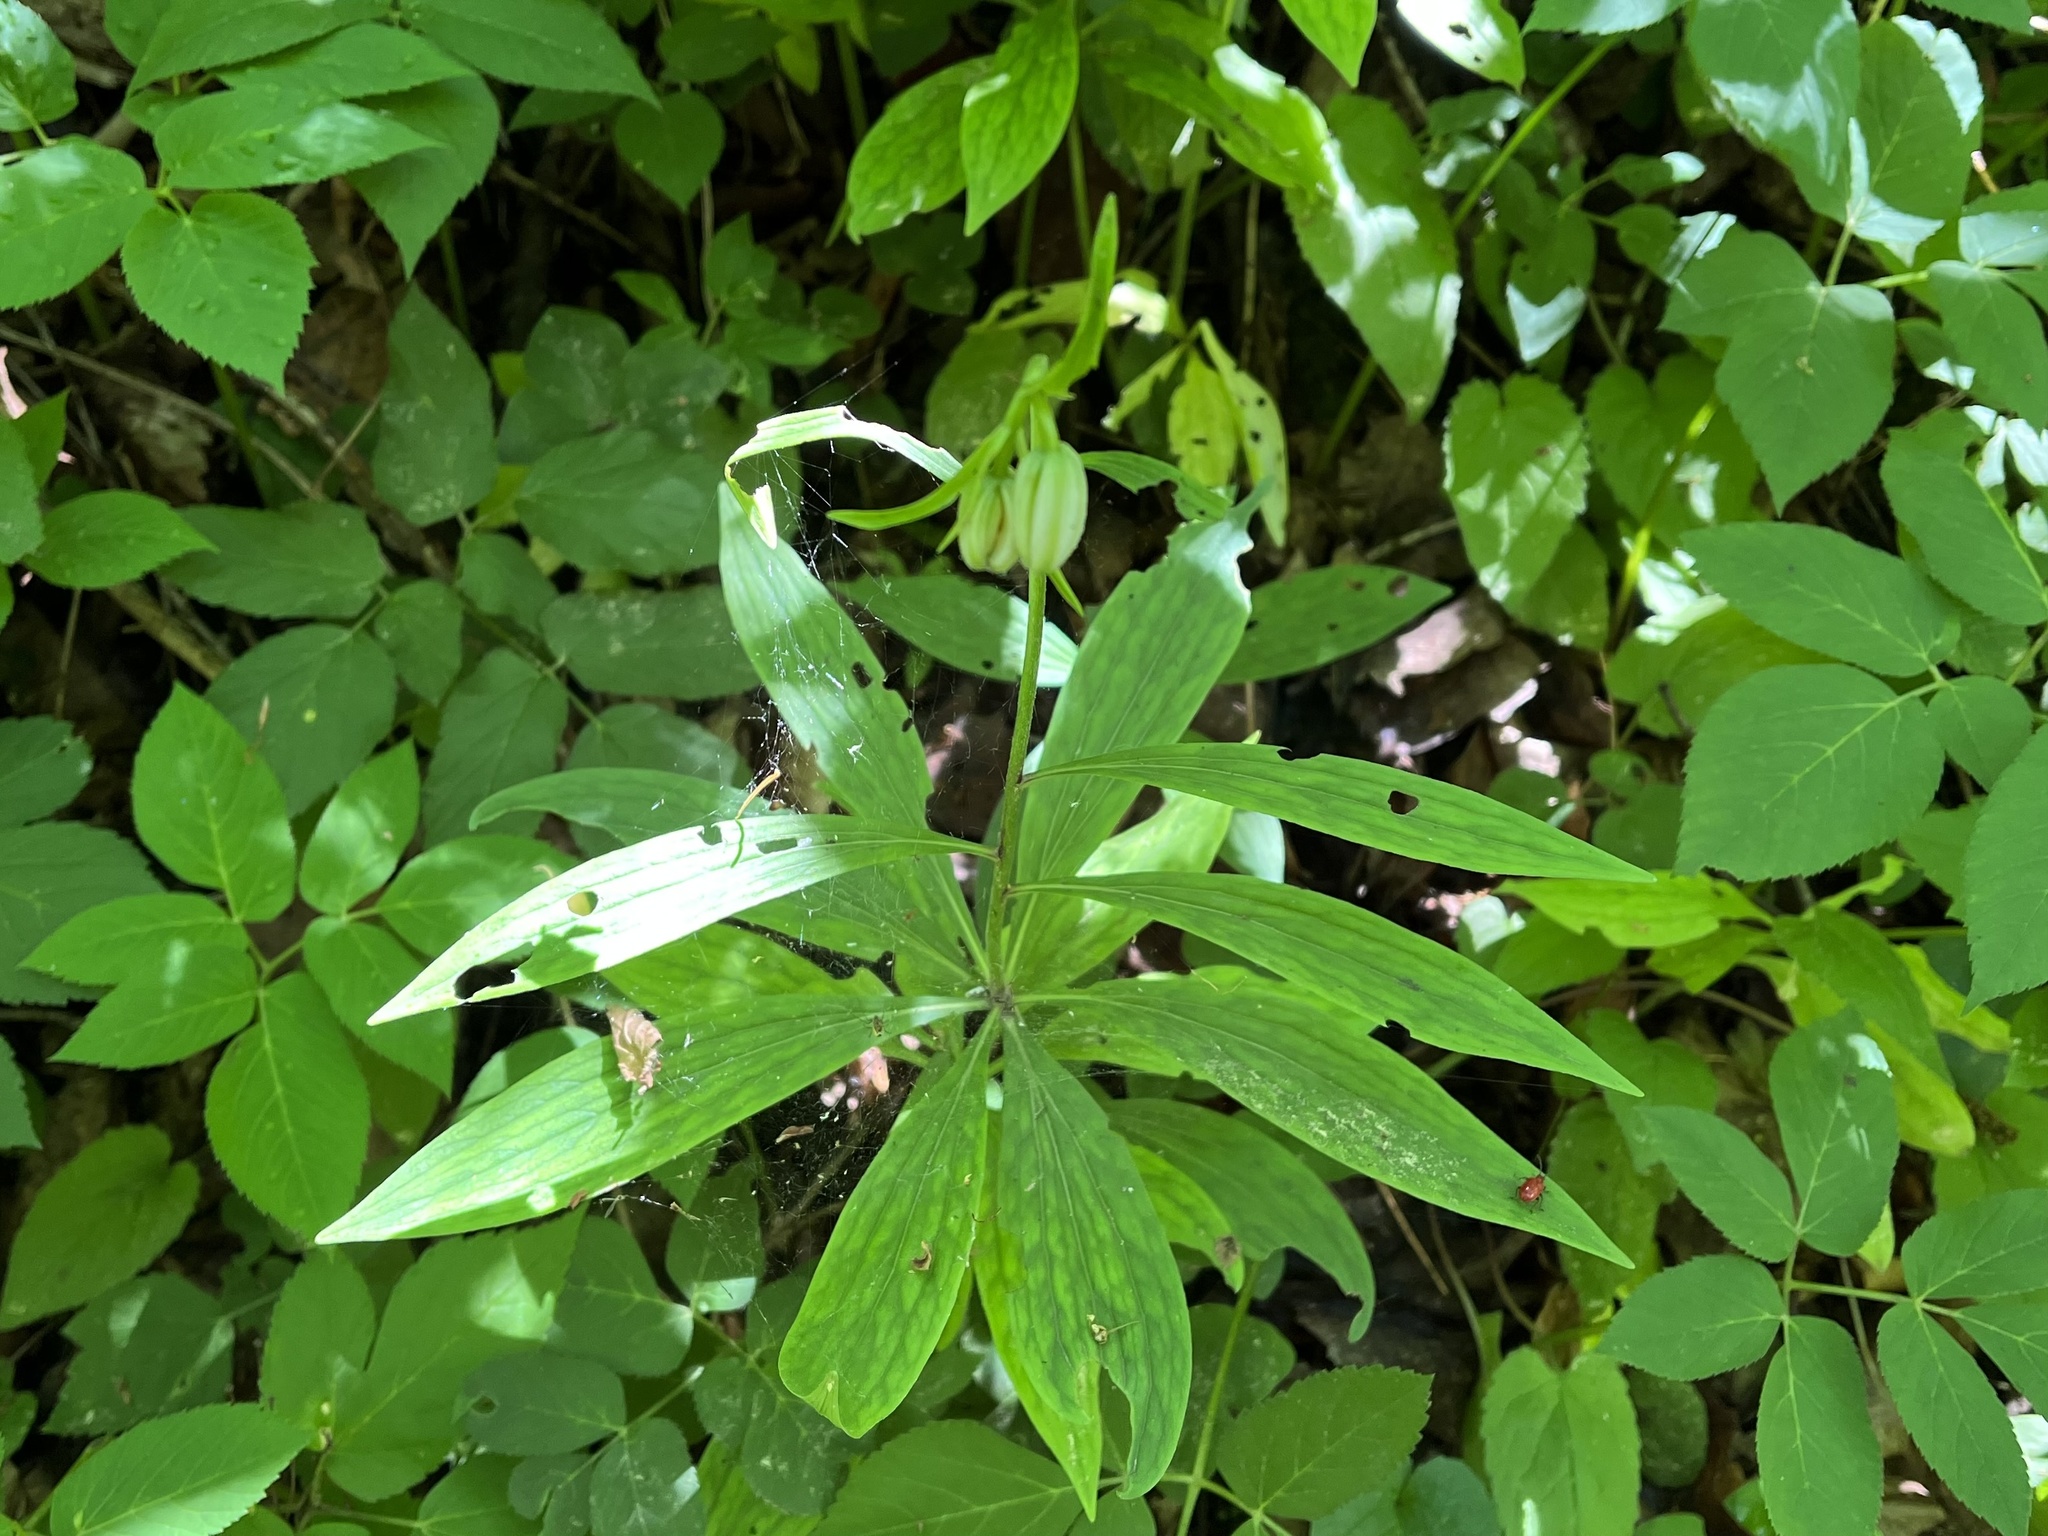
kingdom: Plantae
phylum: Tracheophyta
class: Liliopsida
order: Liliales
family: Liliaceae
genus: Lilium
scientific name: Lilium martagon
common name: Martagon lily
